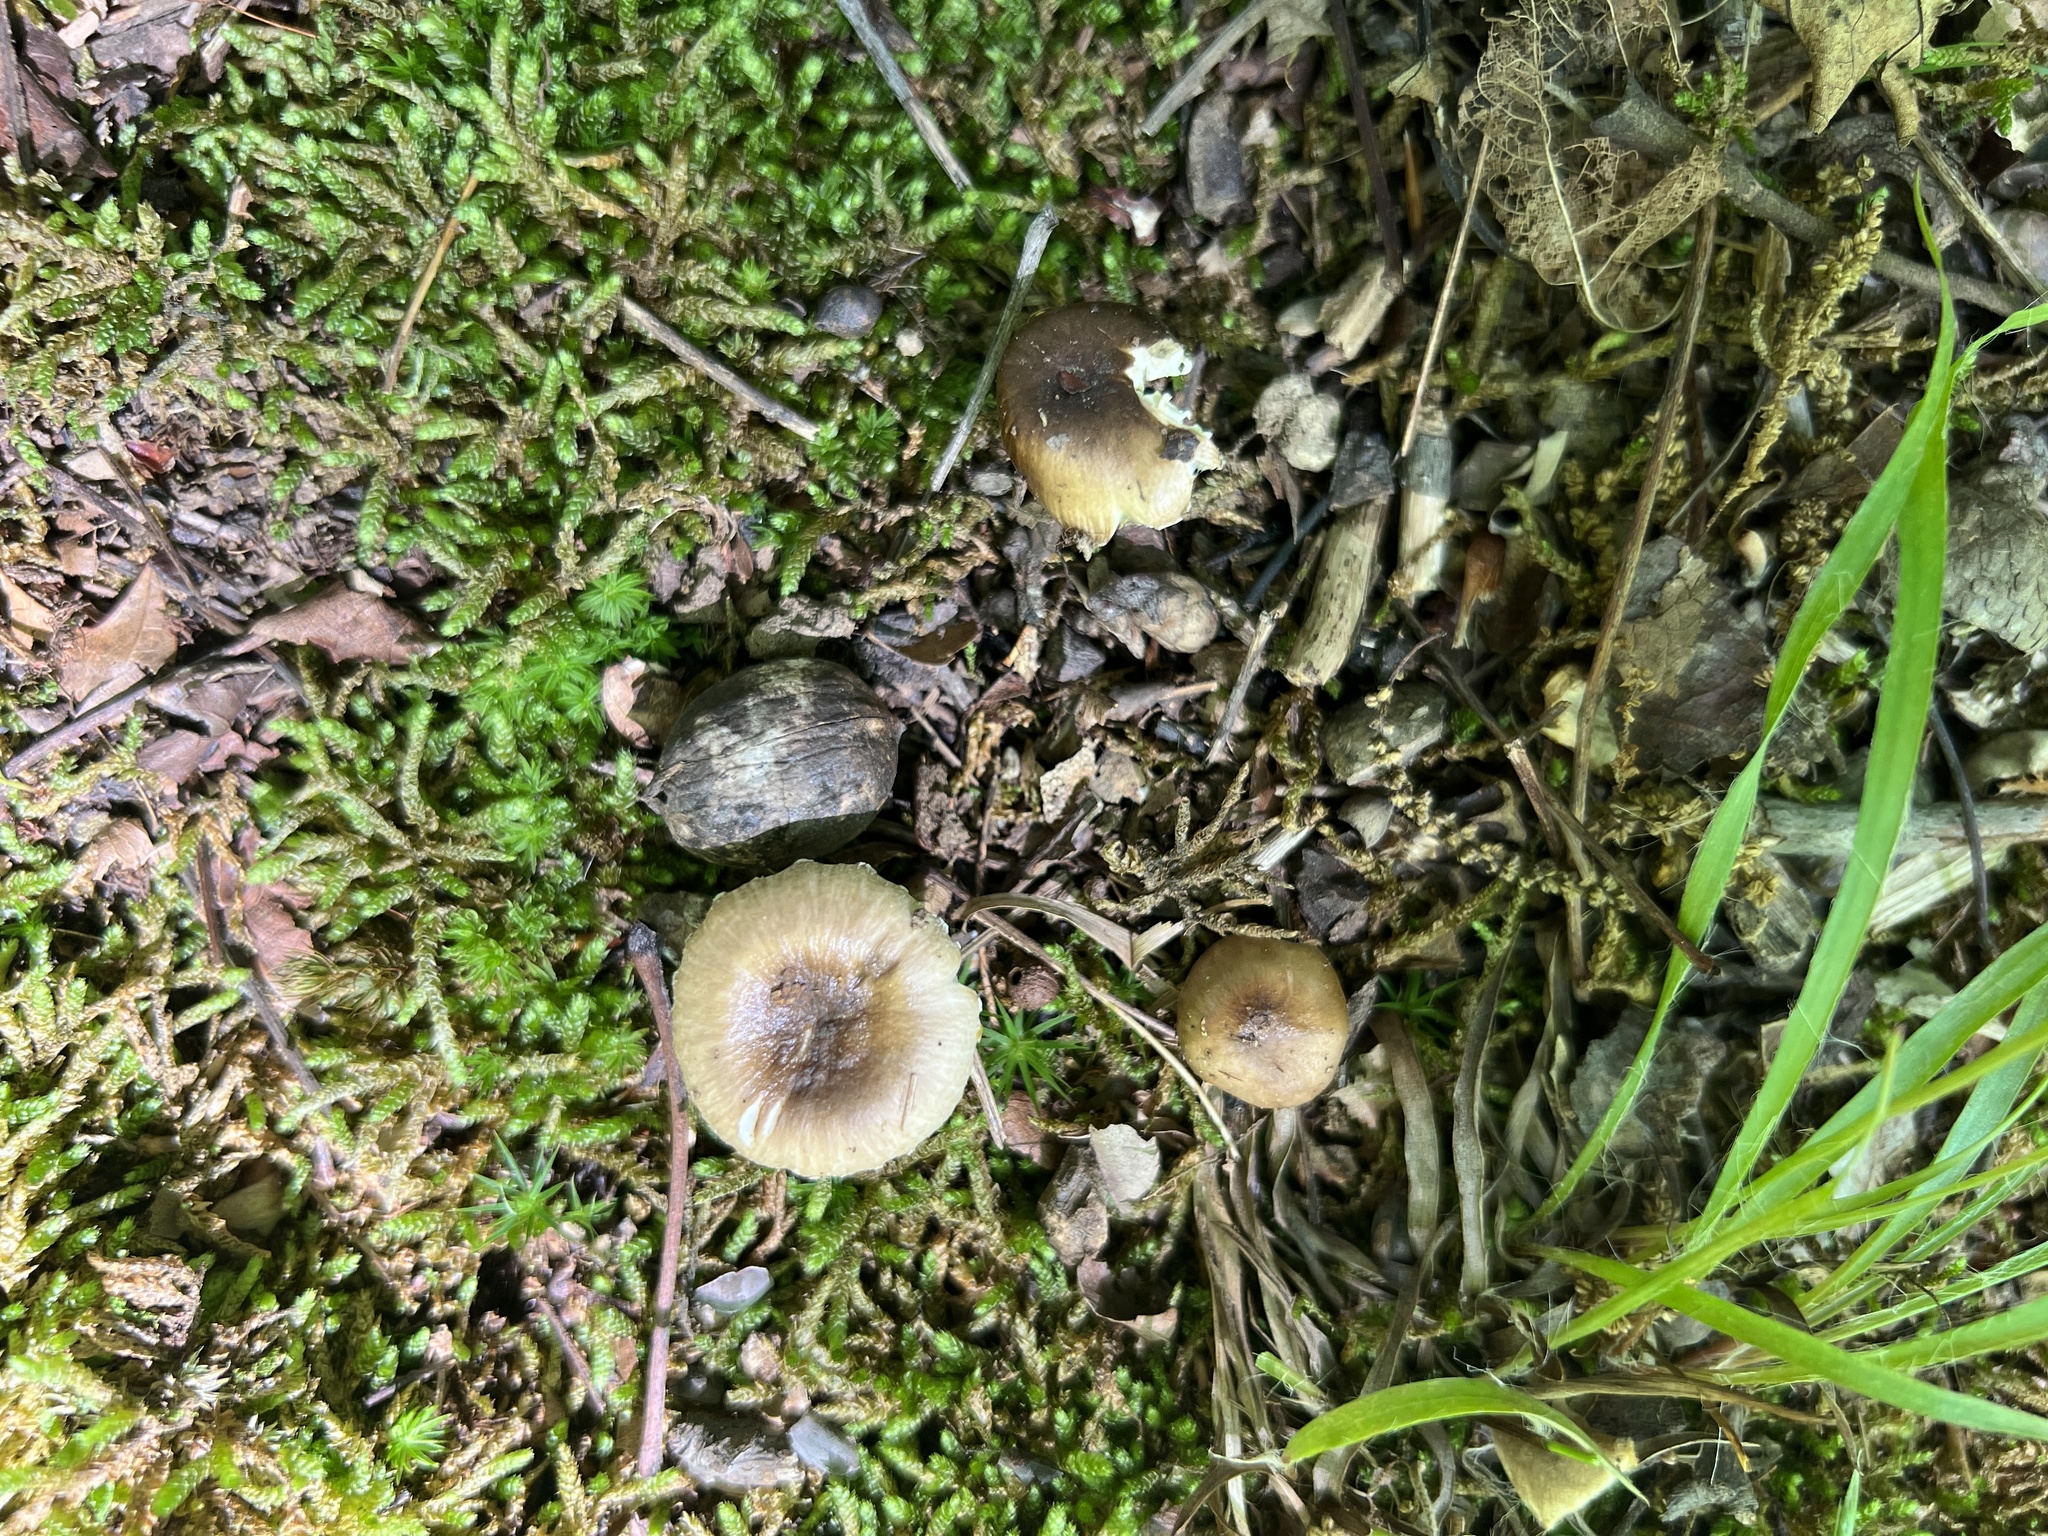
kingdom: Fungi
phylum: Basidiomycota
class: Agaricomycetes
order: Russulales
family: Russulaceae
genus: Russula
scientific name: Russula pectinatoides
